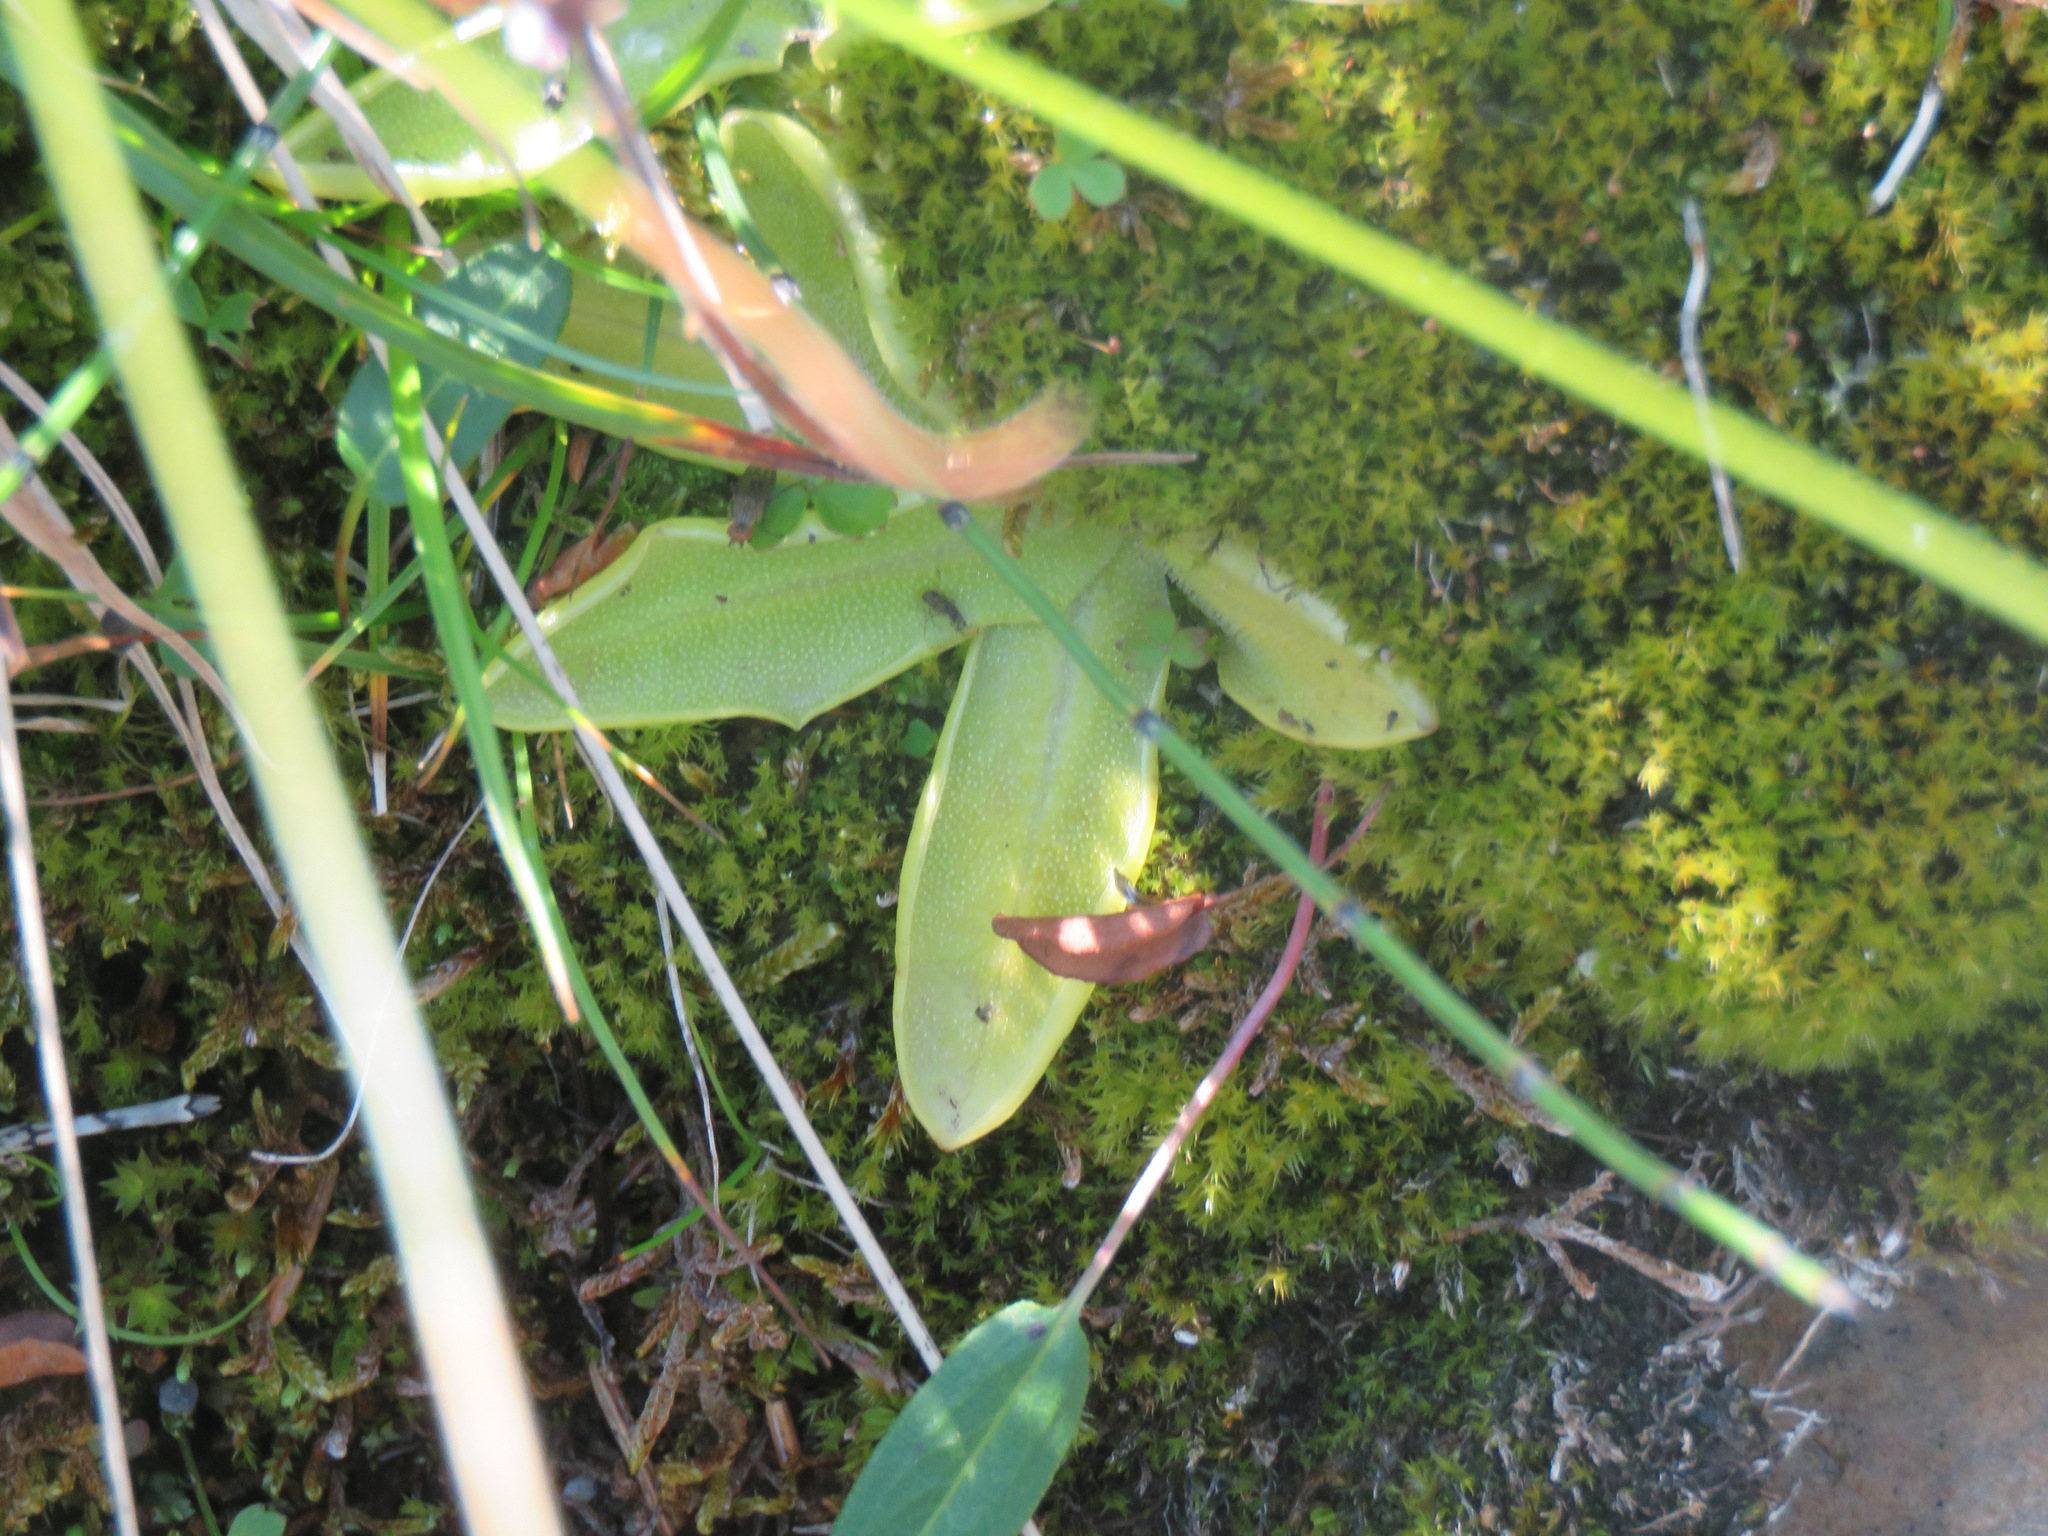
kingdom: Plantae
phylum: Tracheophyta
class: Magnoliopsida
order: Lamiales
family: Lentibulariaceae
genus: Pinguicula
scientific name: Pinguicula vulgaris
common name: Common butterwort
